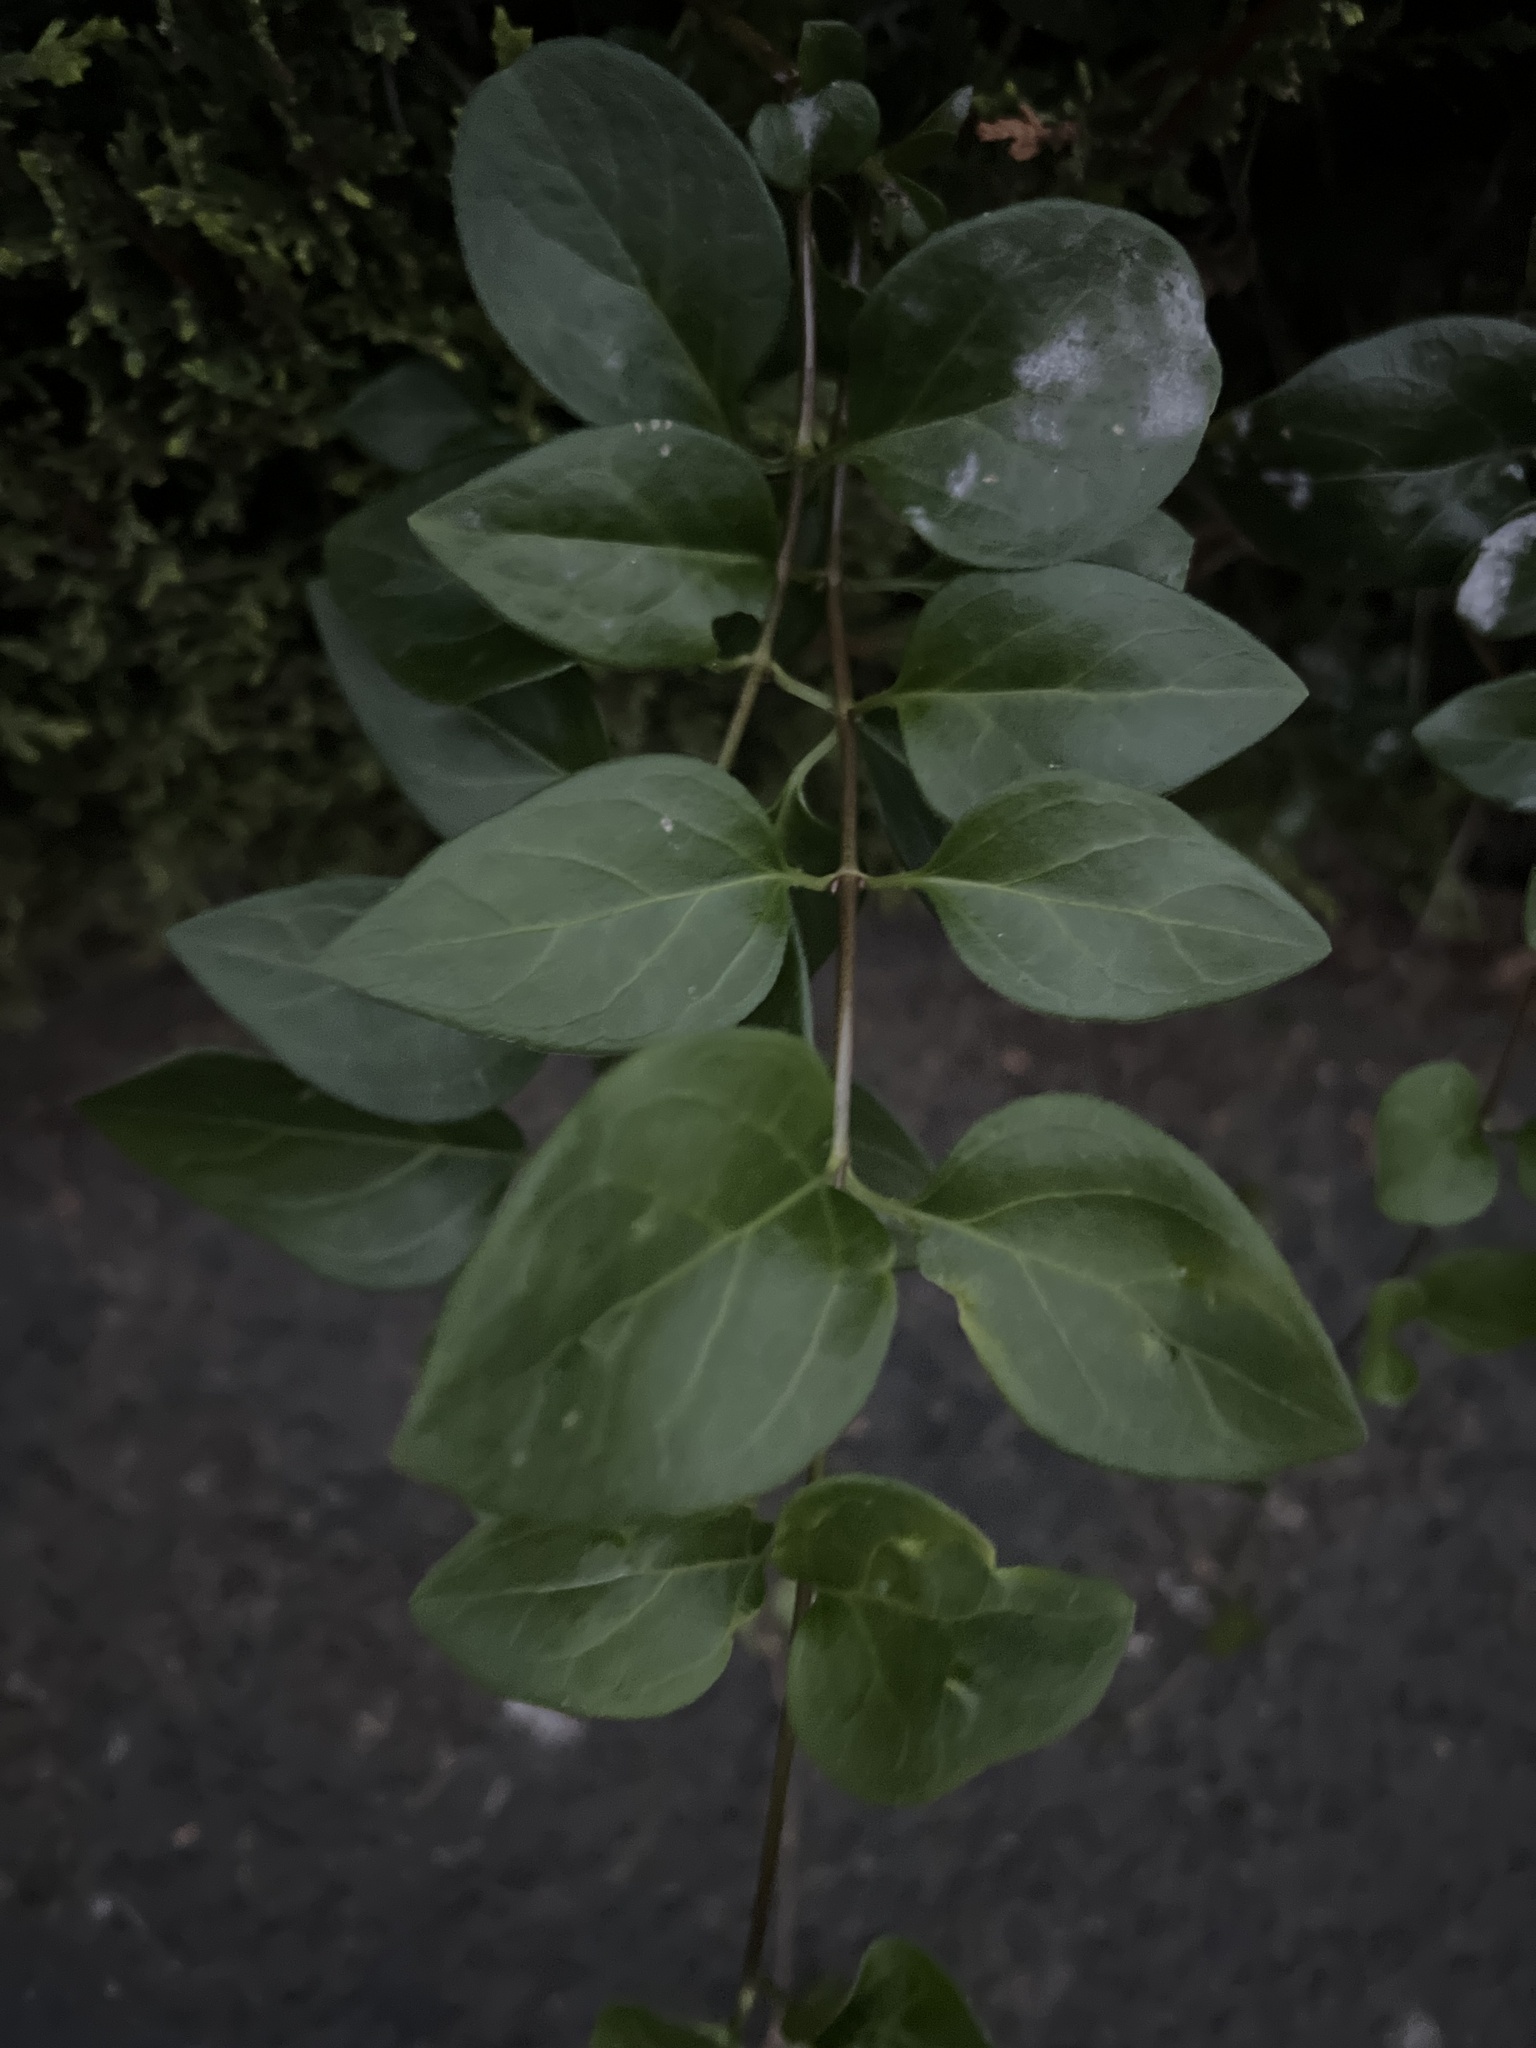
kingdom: Plantae
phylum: Tracheophyta
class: Magnoliopsida
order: Gentianales
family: Apocynaceae
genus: Vinca
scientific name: Vinca major
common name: Greater periwinkle
